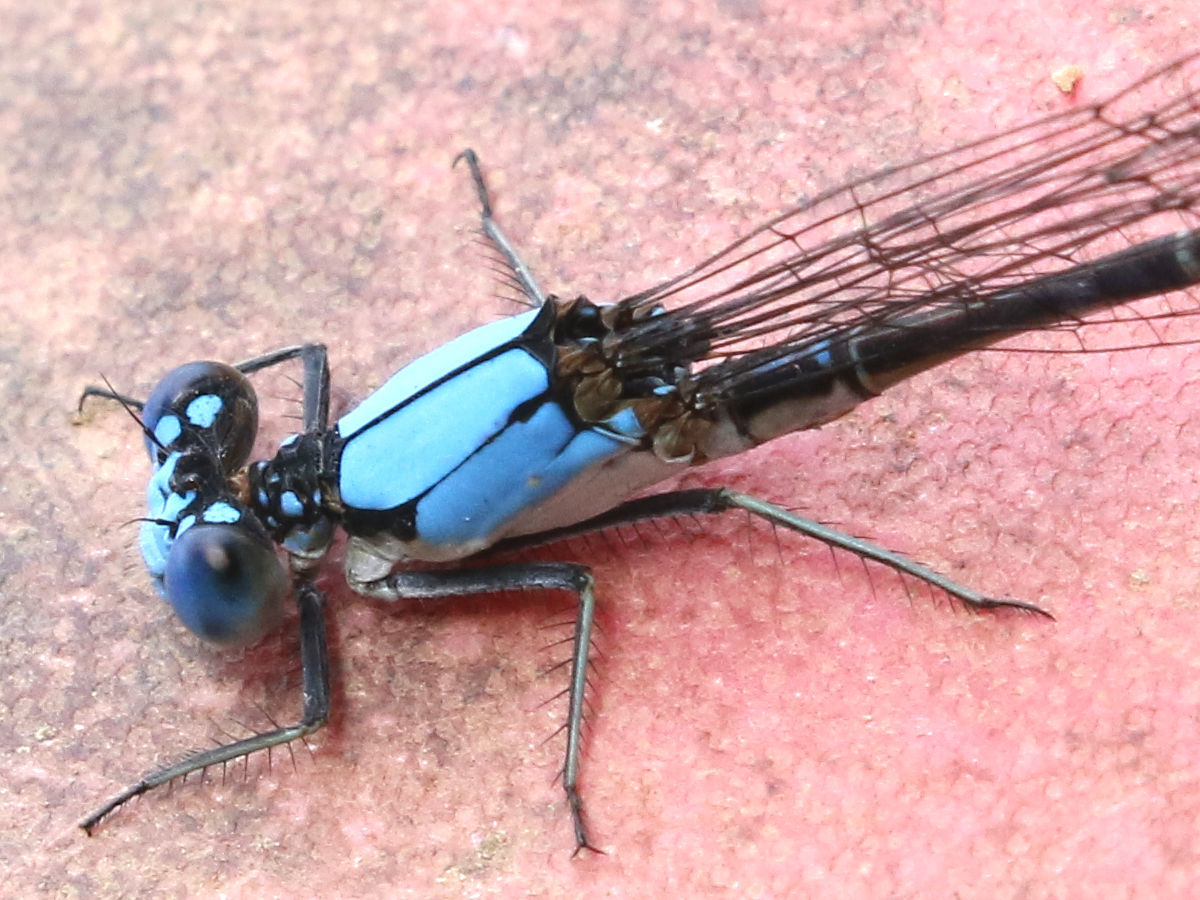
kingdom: Animalia
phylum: Arthropoda
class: Insecta
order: Odonata
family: Coenagrionidae
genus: Argia
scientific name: Argia apicalis
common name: Blue-fronted dancer
